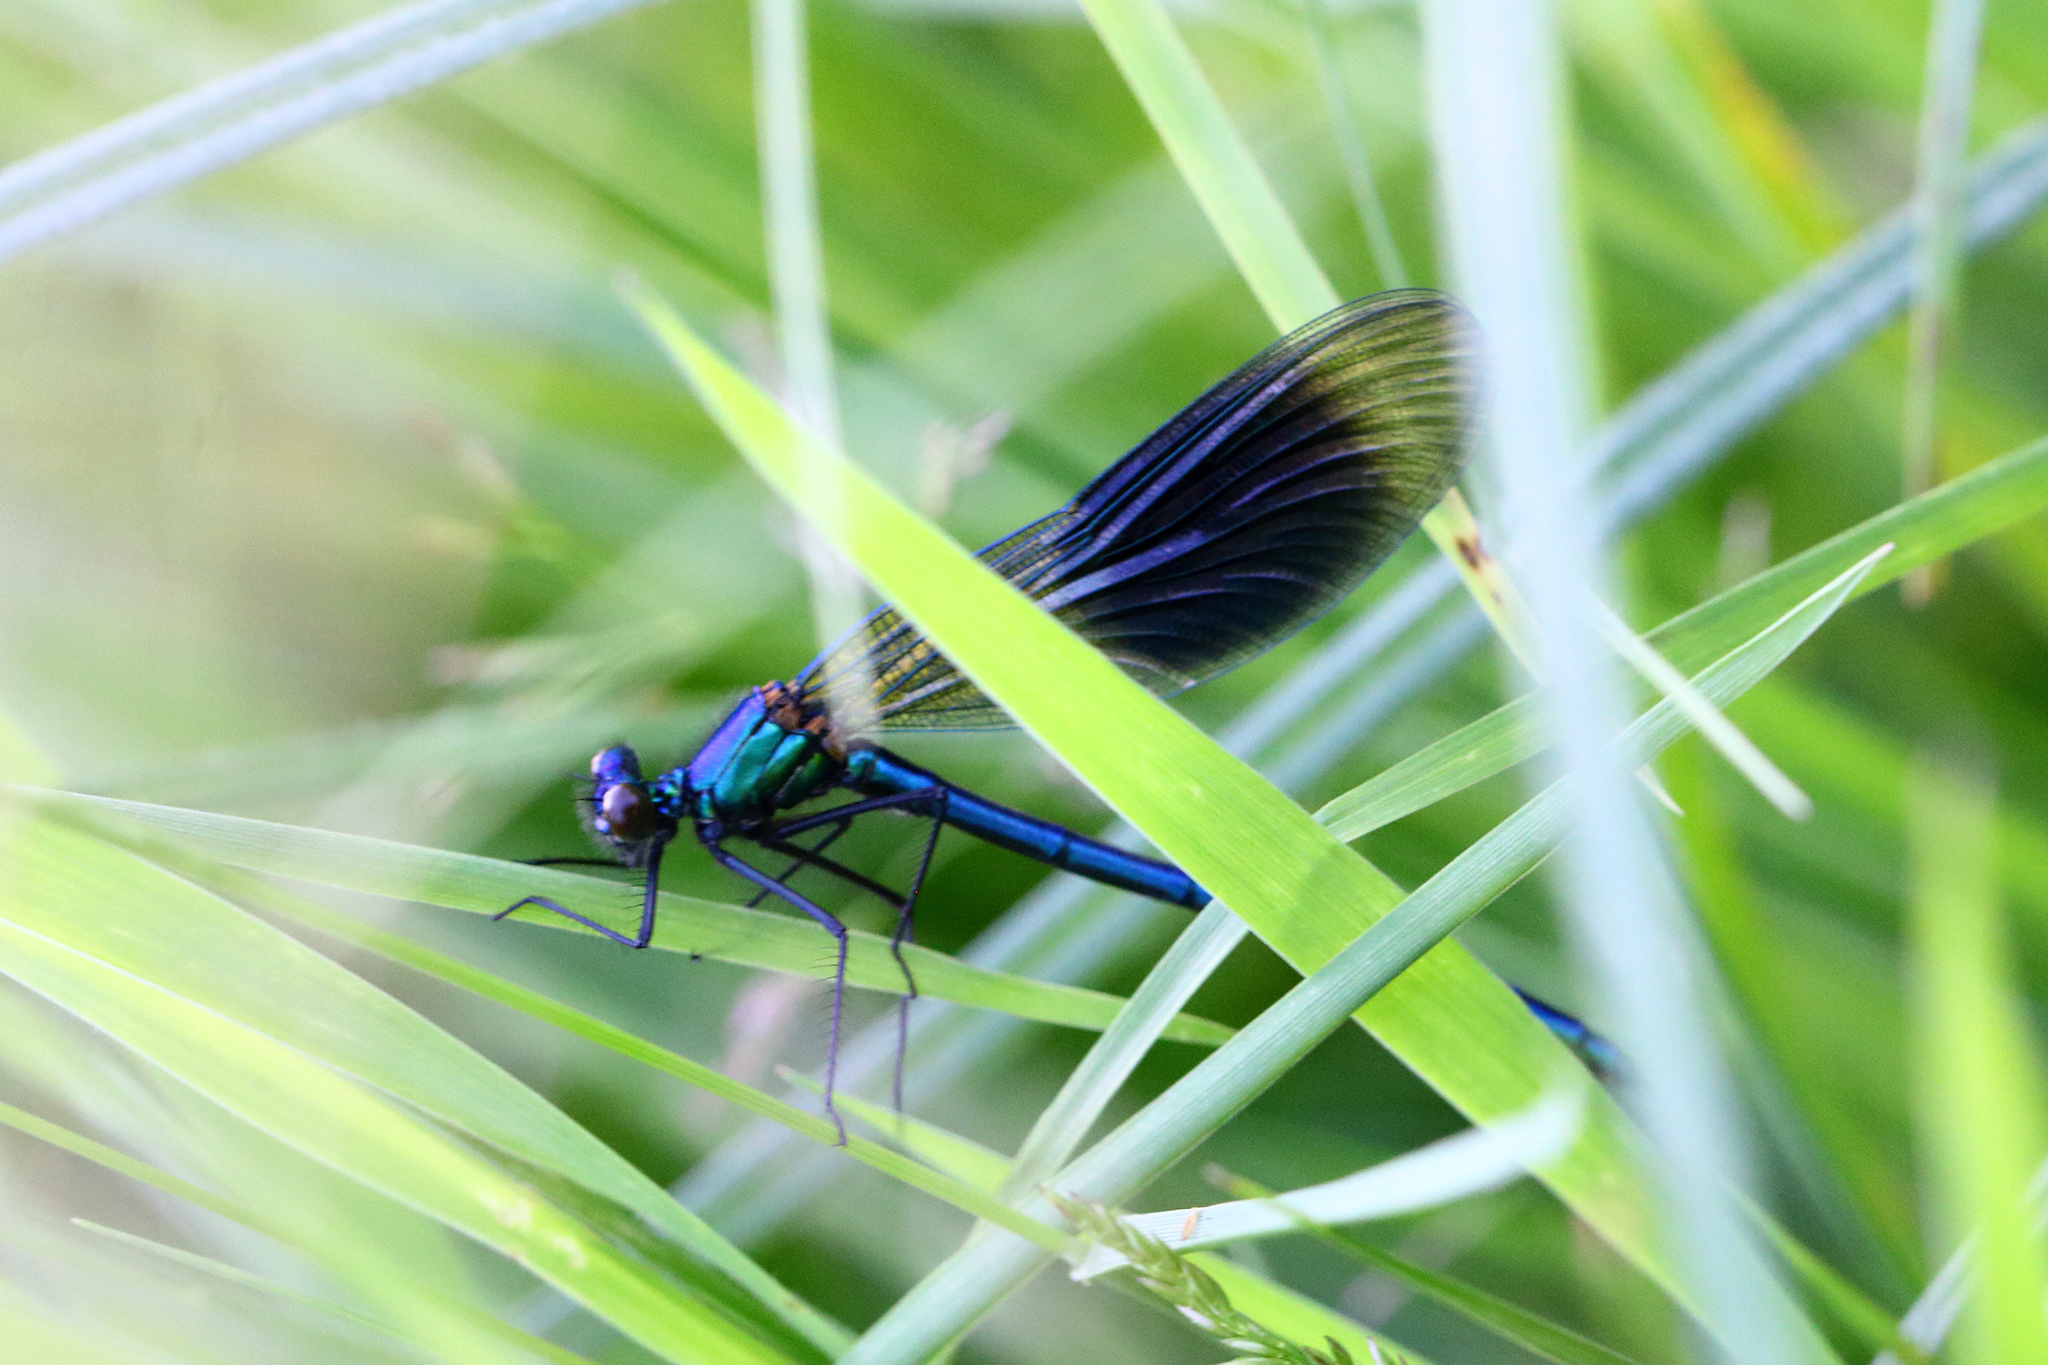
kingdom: Animalia
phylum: Arthropoda
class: Insecta
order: Odonata
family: Calopterygidae
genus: Calopteryx
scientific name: Calopteryx splendens
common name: Banded demoiselle
